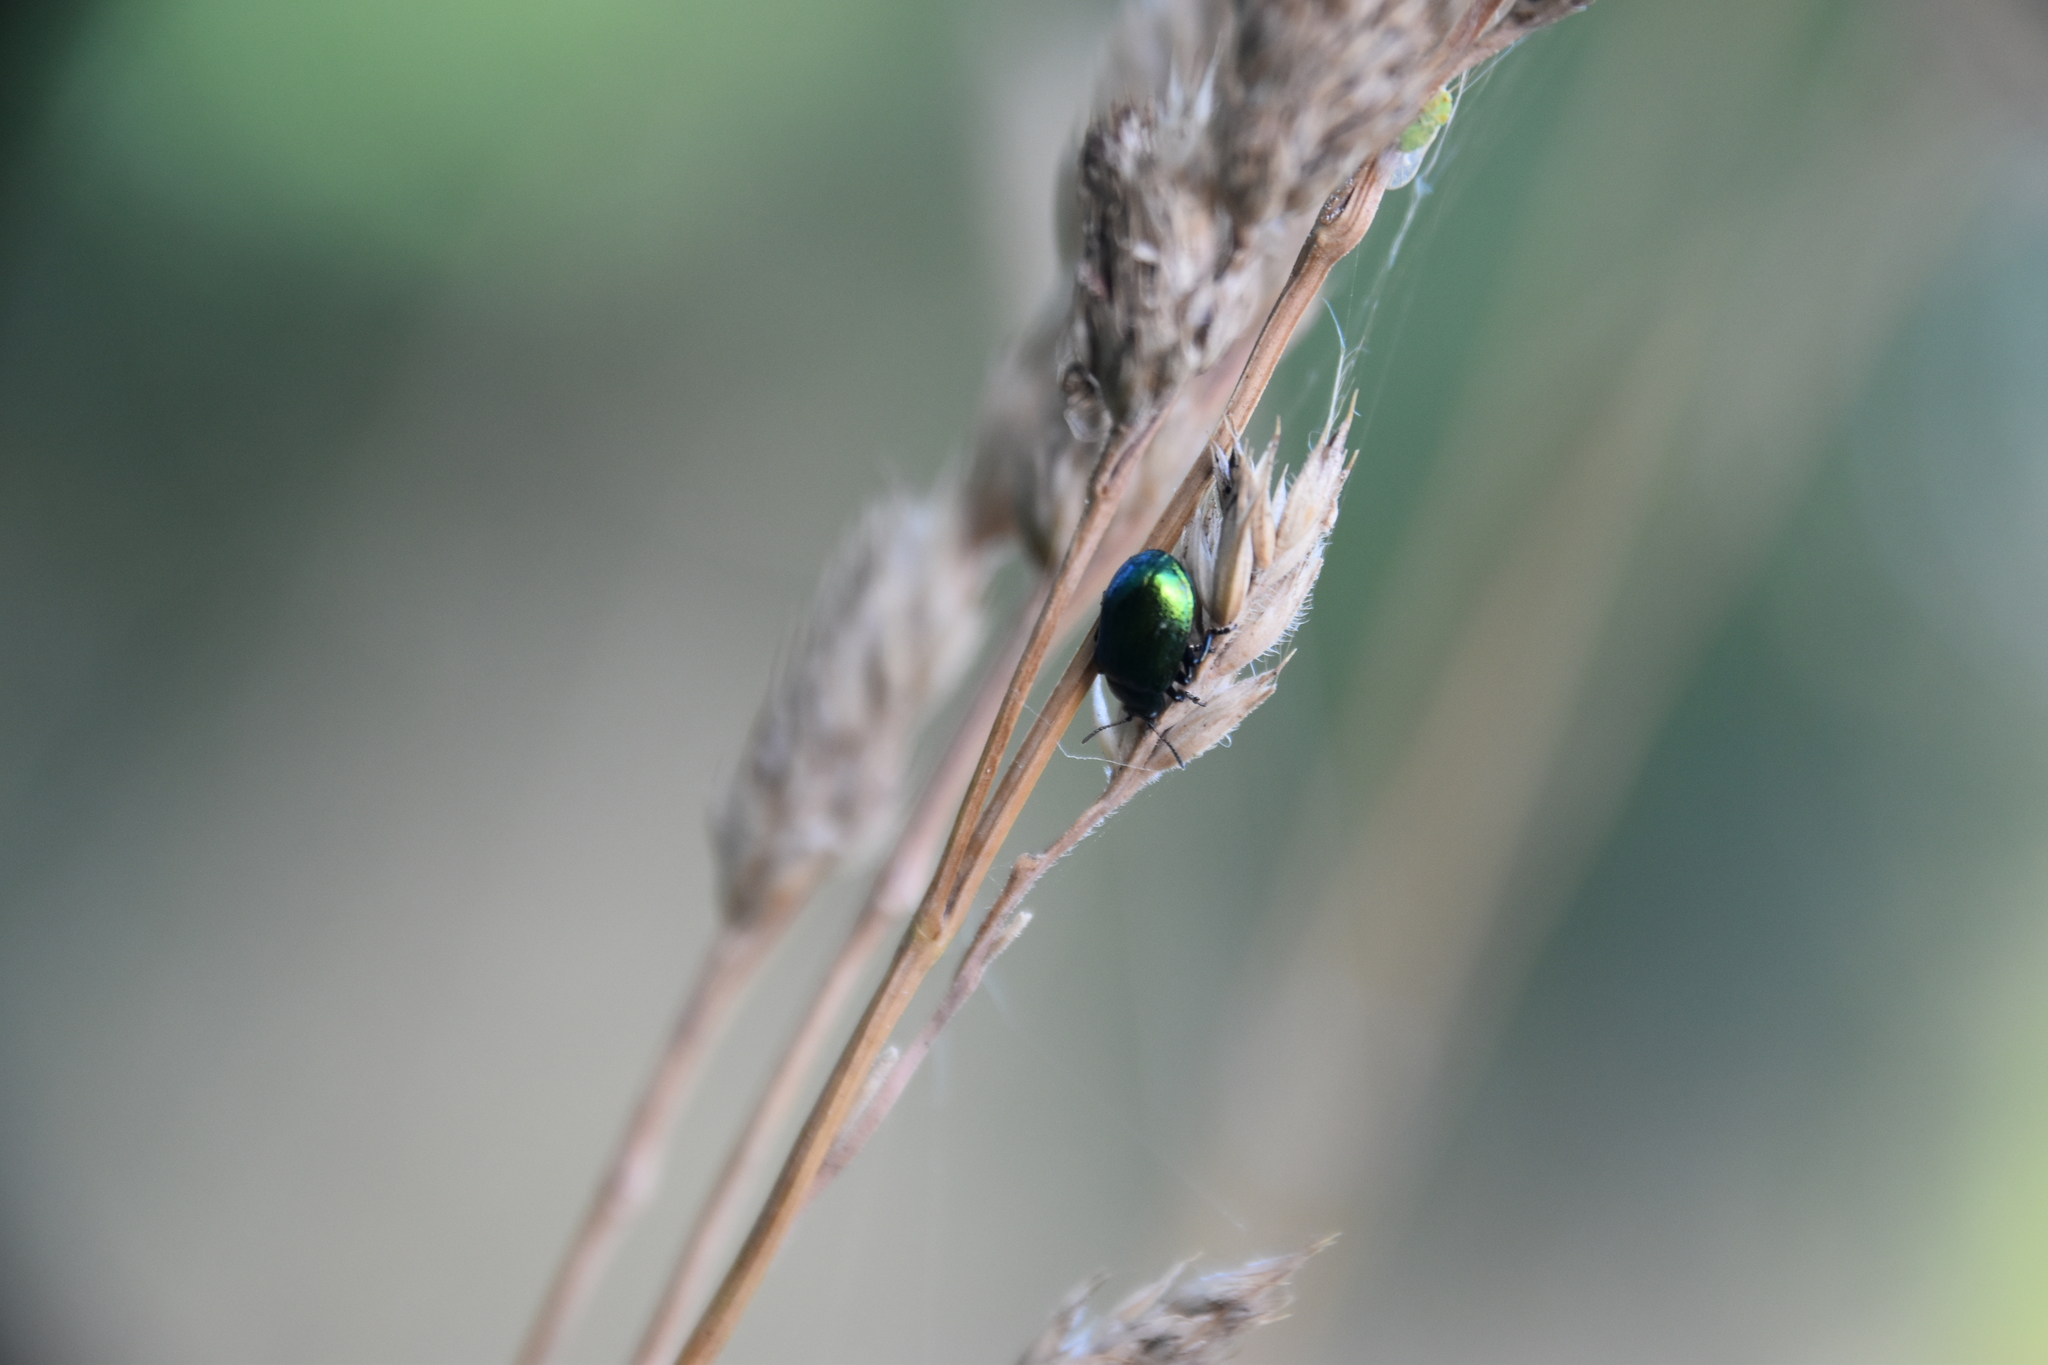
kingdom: Animalia
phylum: Arthropoda
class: Insecta
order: Coleoptera
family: Chrysomelidae
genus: Plagiosterna
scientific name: Plagiosterna aenea
